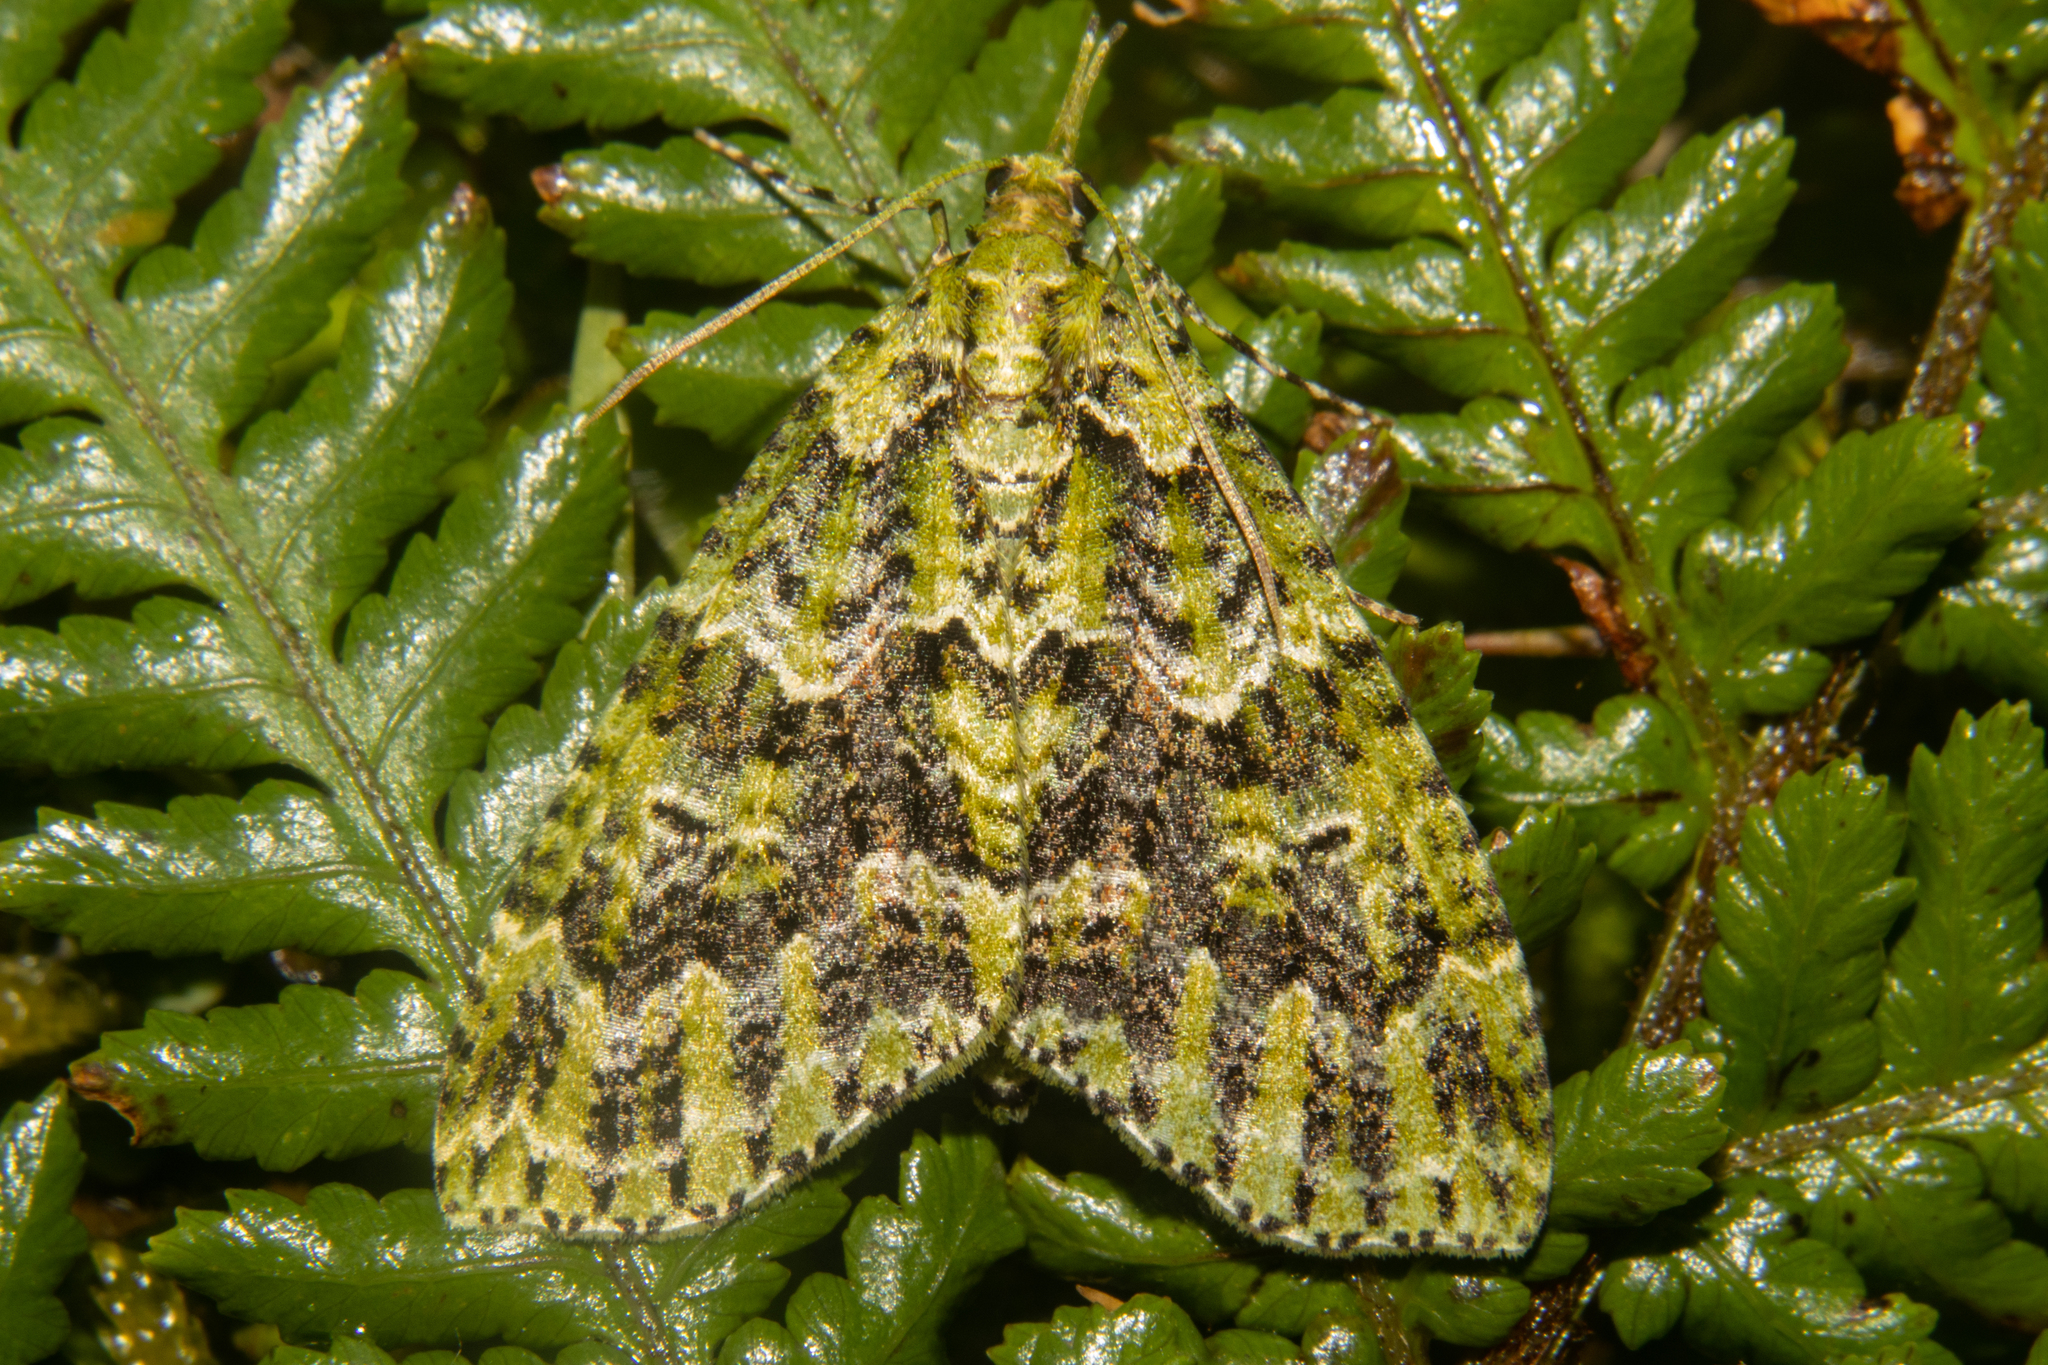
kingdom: Animalia
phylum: Arthropoda
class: Insecta
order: Lepidoptera
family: Geometridae
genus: Tatosoma
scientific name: Tatosoma tipulata
